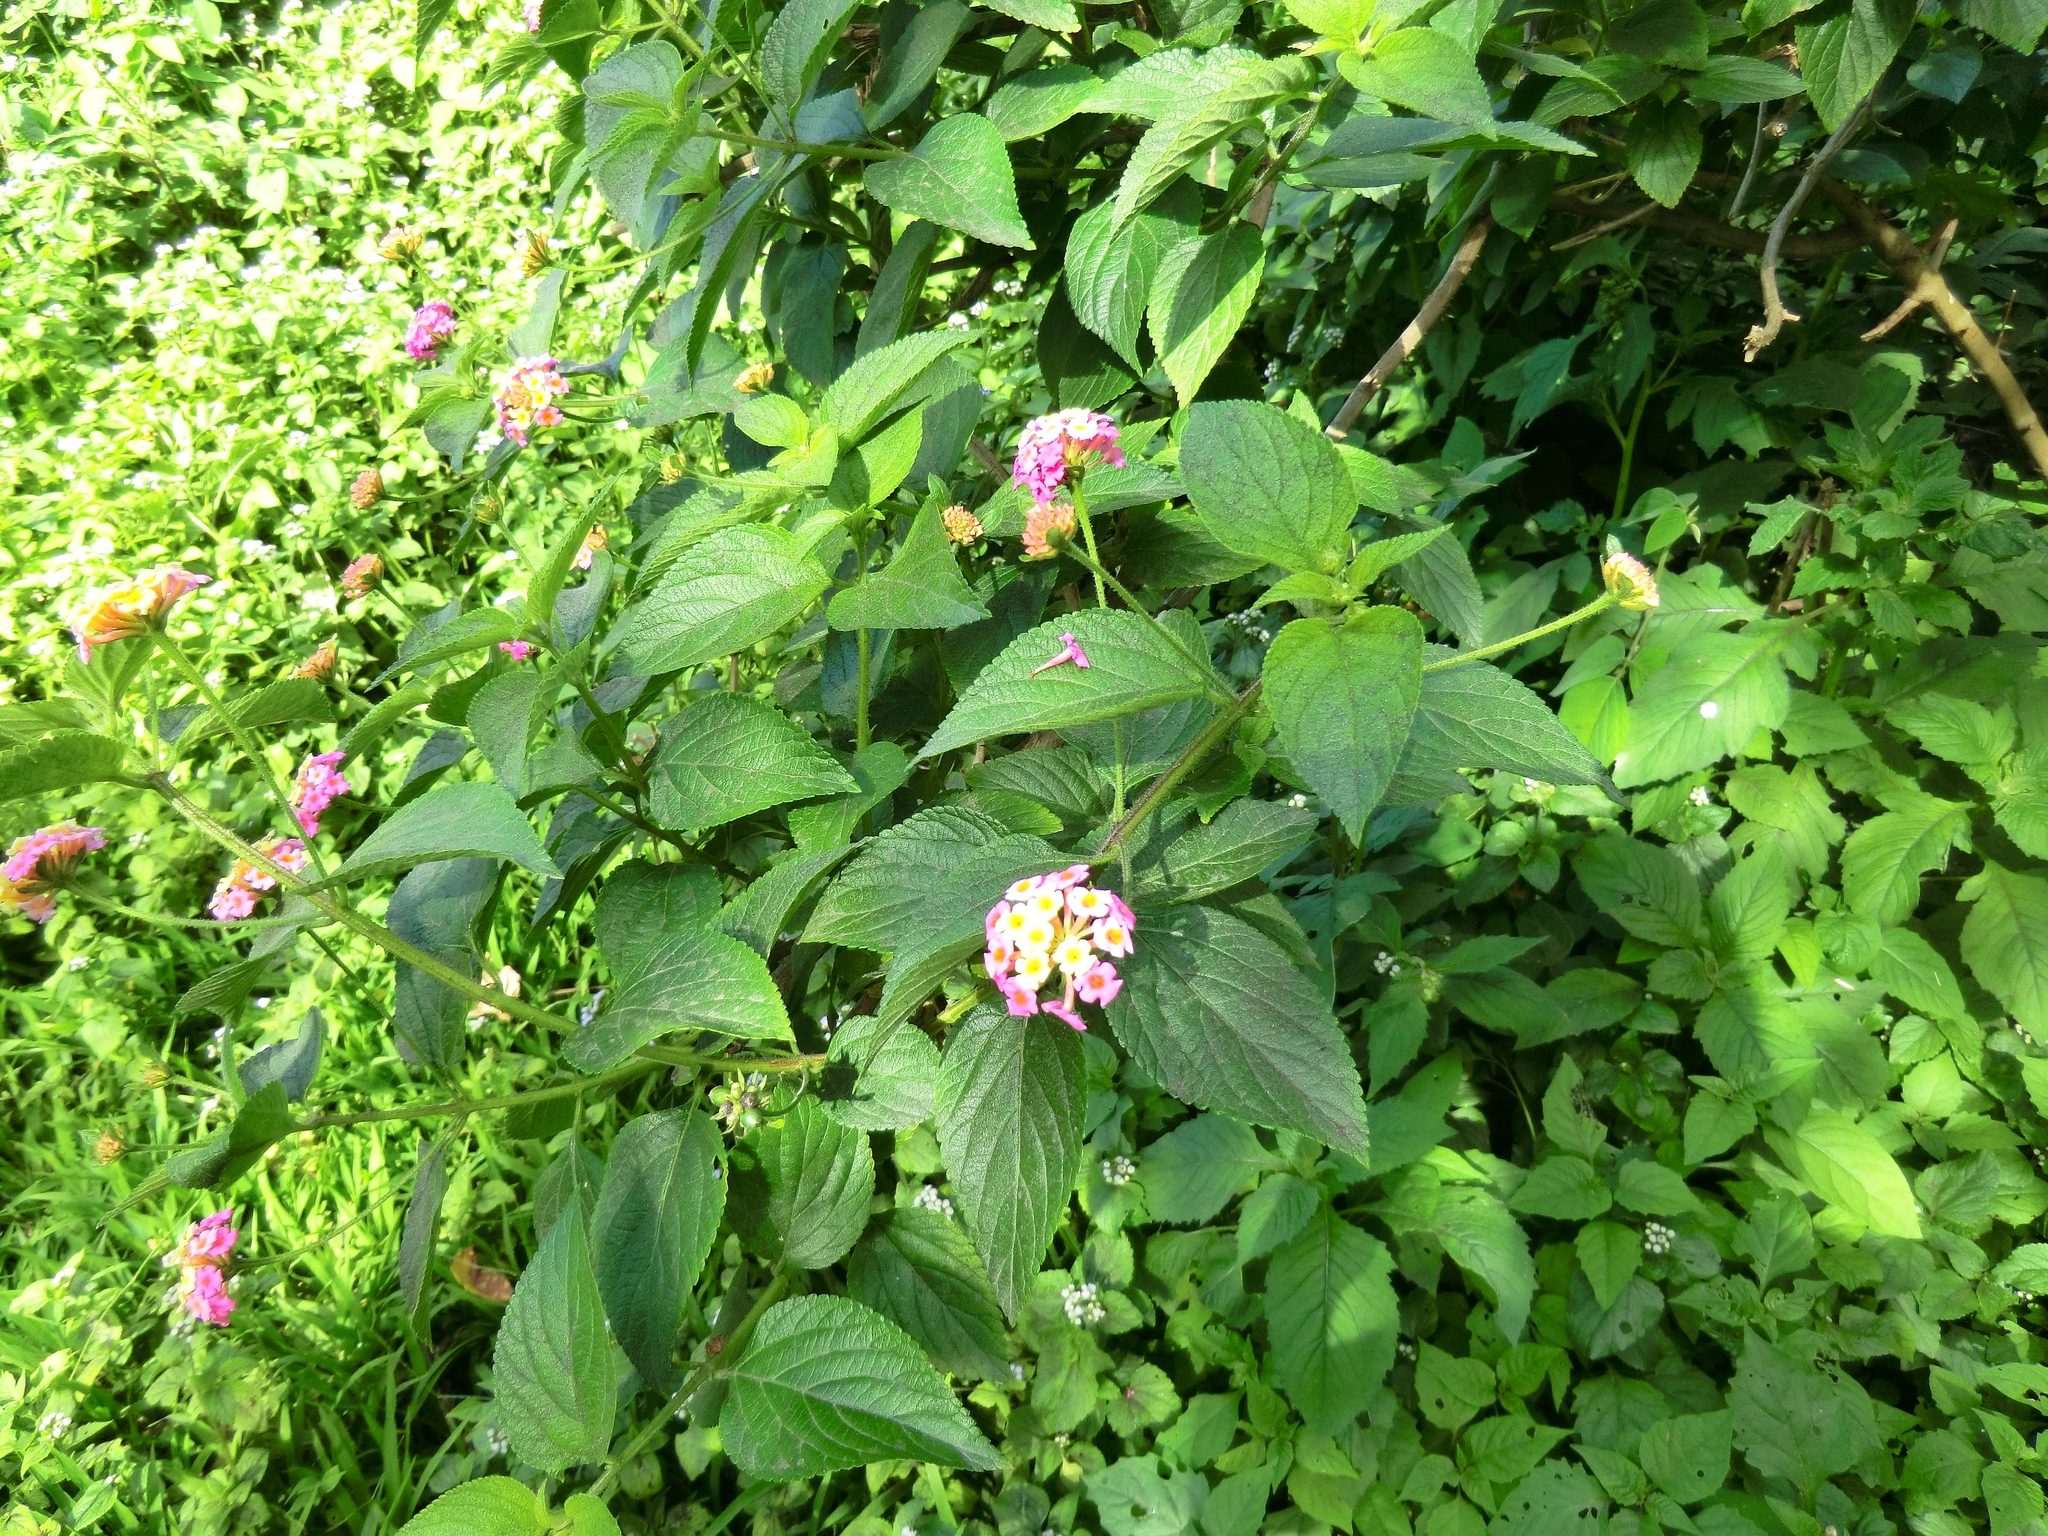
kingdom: Plantae
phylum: Tracheophyta
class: Magnoliopsida
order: Lamiales
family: Verbenaceae
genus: Lantana
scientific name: Lantana camara
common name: Lantana
